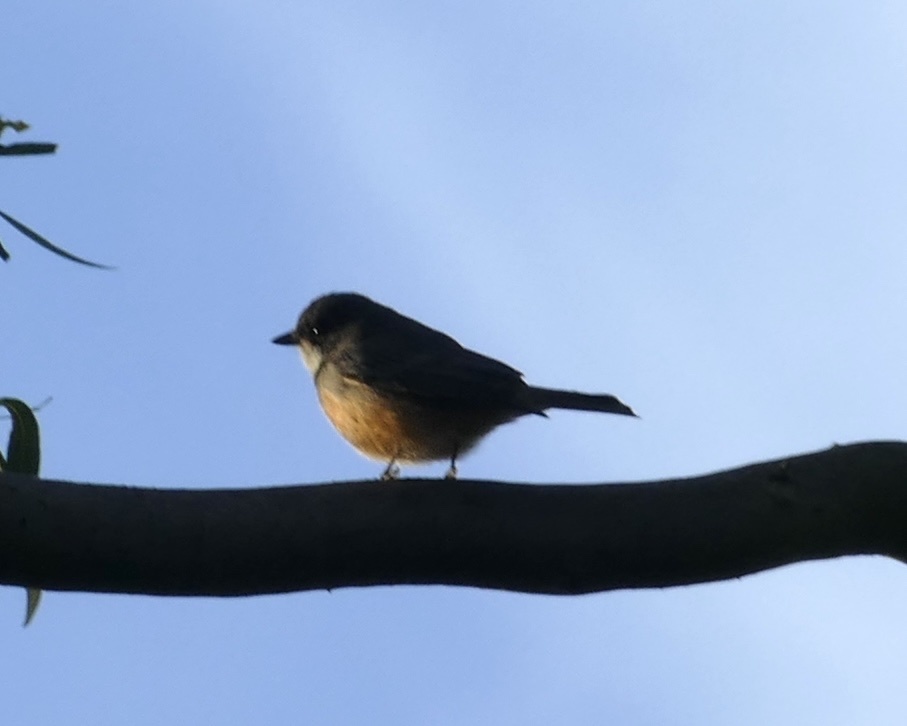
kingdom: Animalia
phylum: Chordata
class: Aves
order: Passeriformes
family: Pachycephalidae
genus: Pachycephala
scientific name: Pachycephala rufiventris
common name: Rufous whistler
